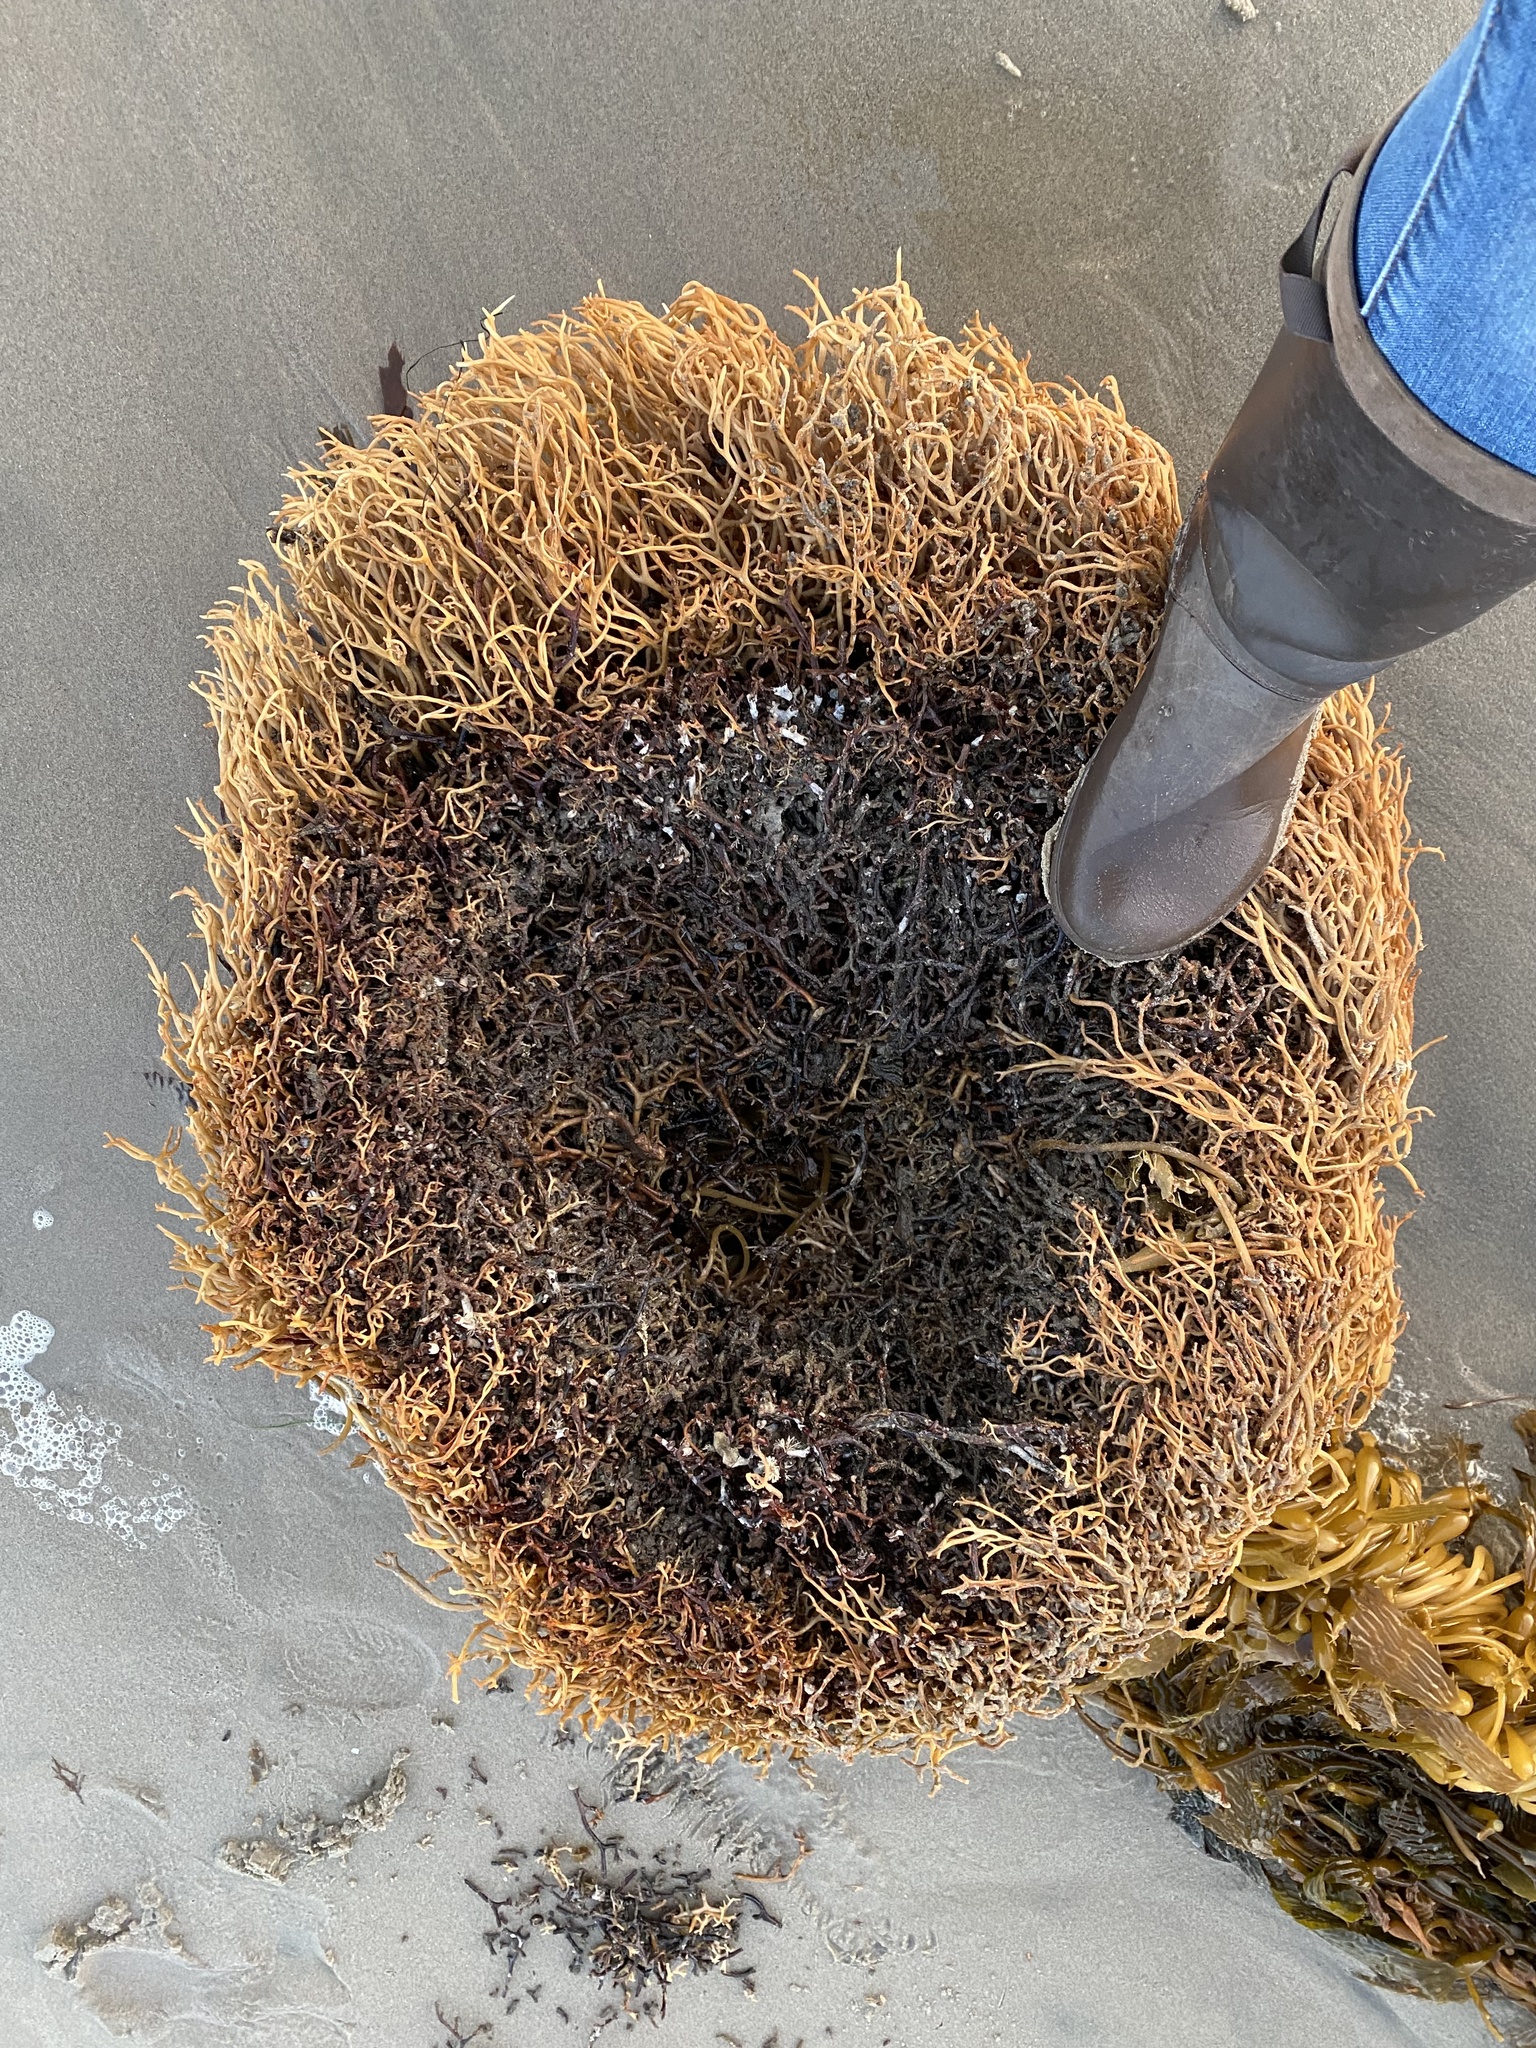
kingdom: Chromista
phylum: Ochrophyta
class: Phaeophyceae
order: Laminariales
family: Laminariaceae
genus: Macrocystis
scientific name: Macrocystis pyrifera
